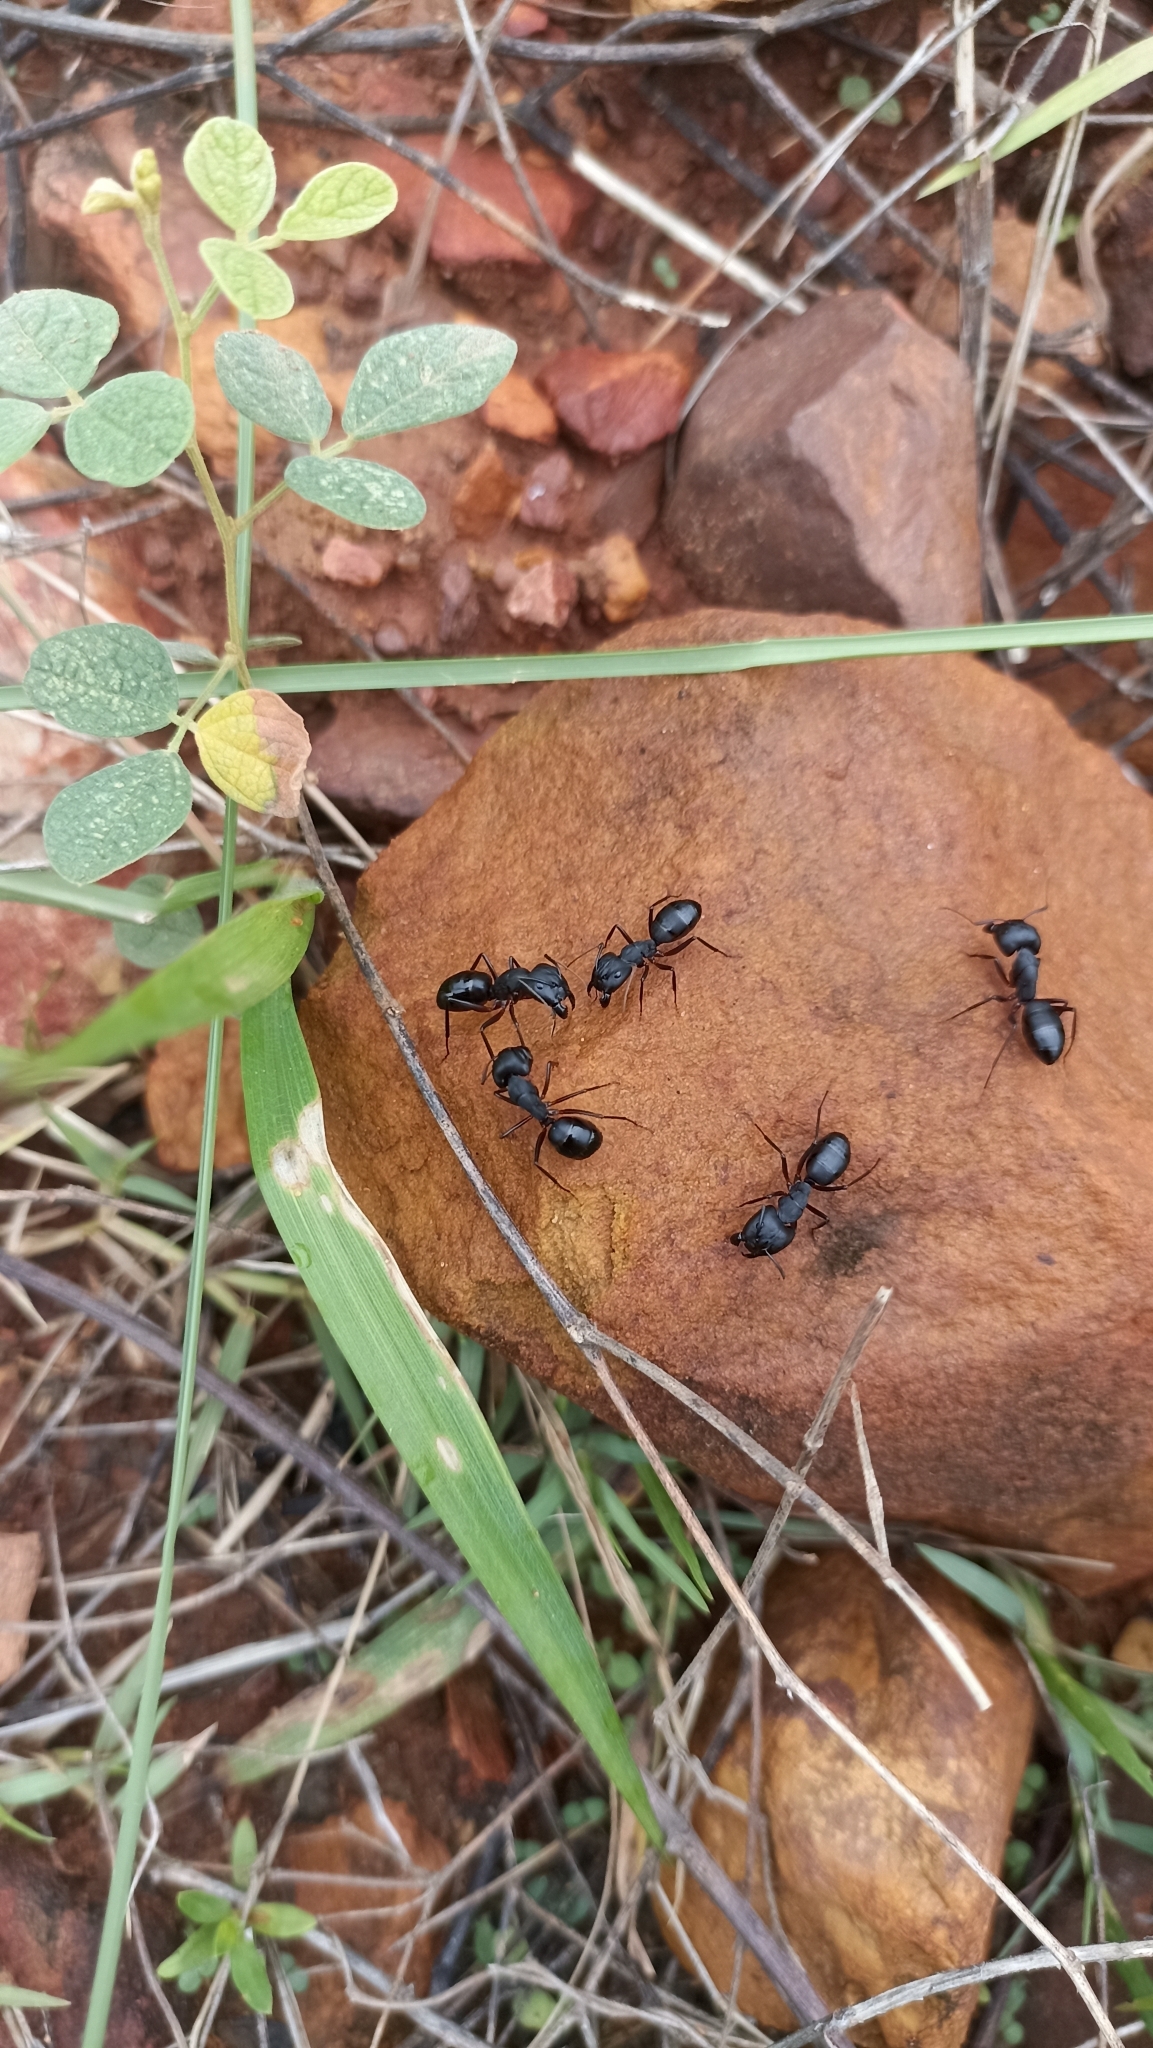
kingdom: Animalia
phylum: Arthropoda
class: Insecta
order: Hymenoptera
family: Formicidae
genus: Camponotus
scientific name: Camponotus compressus
